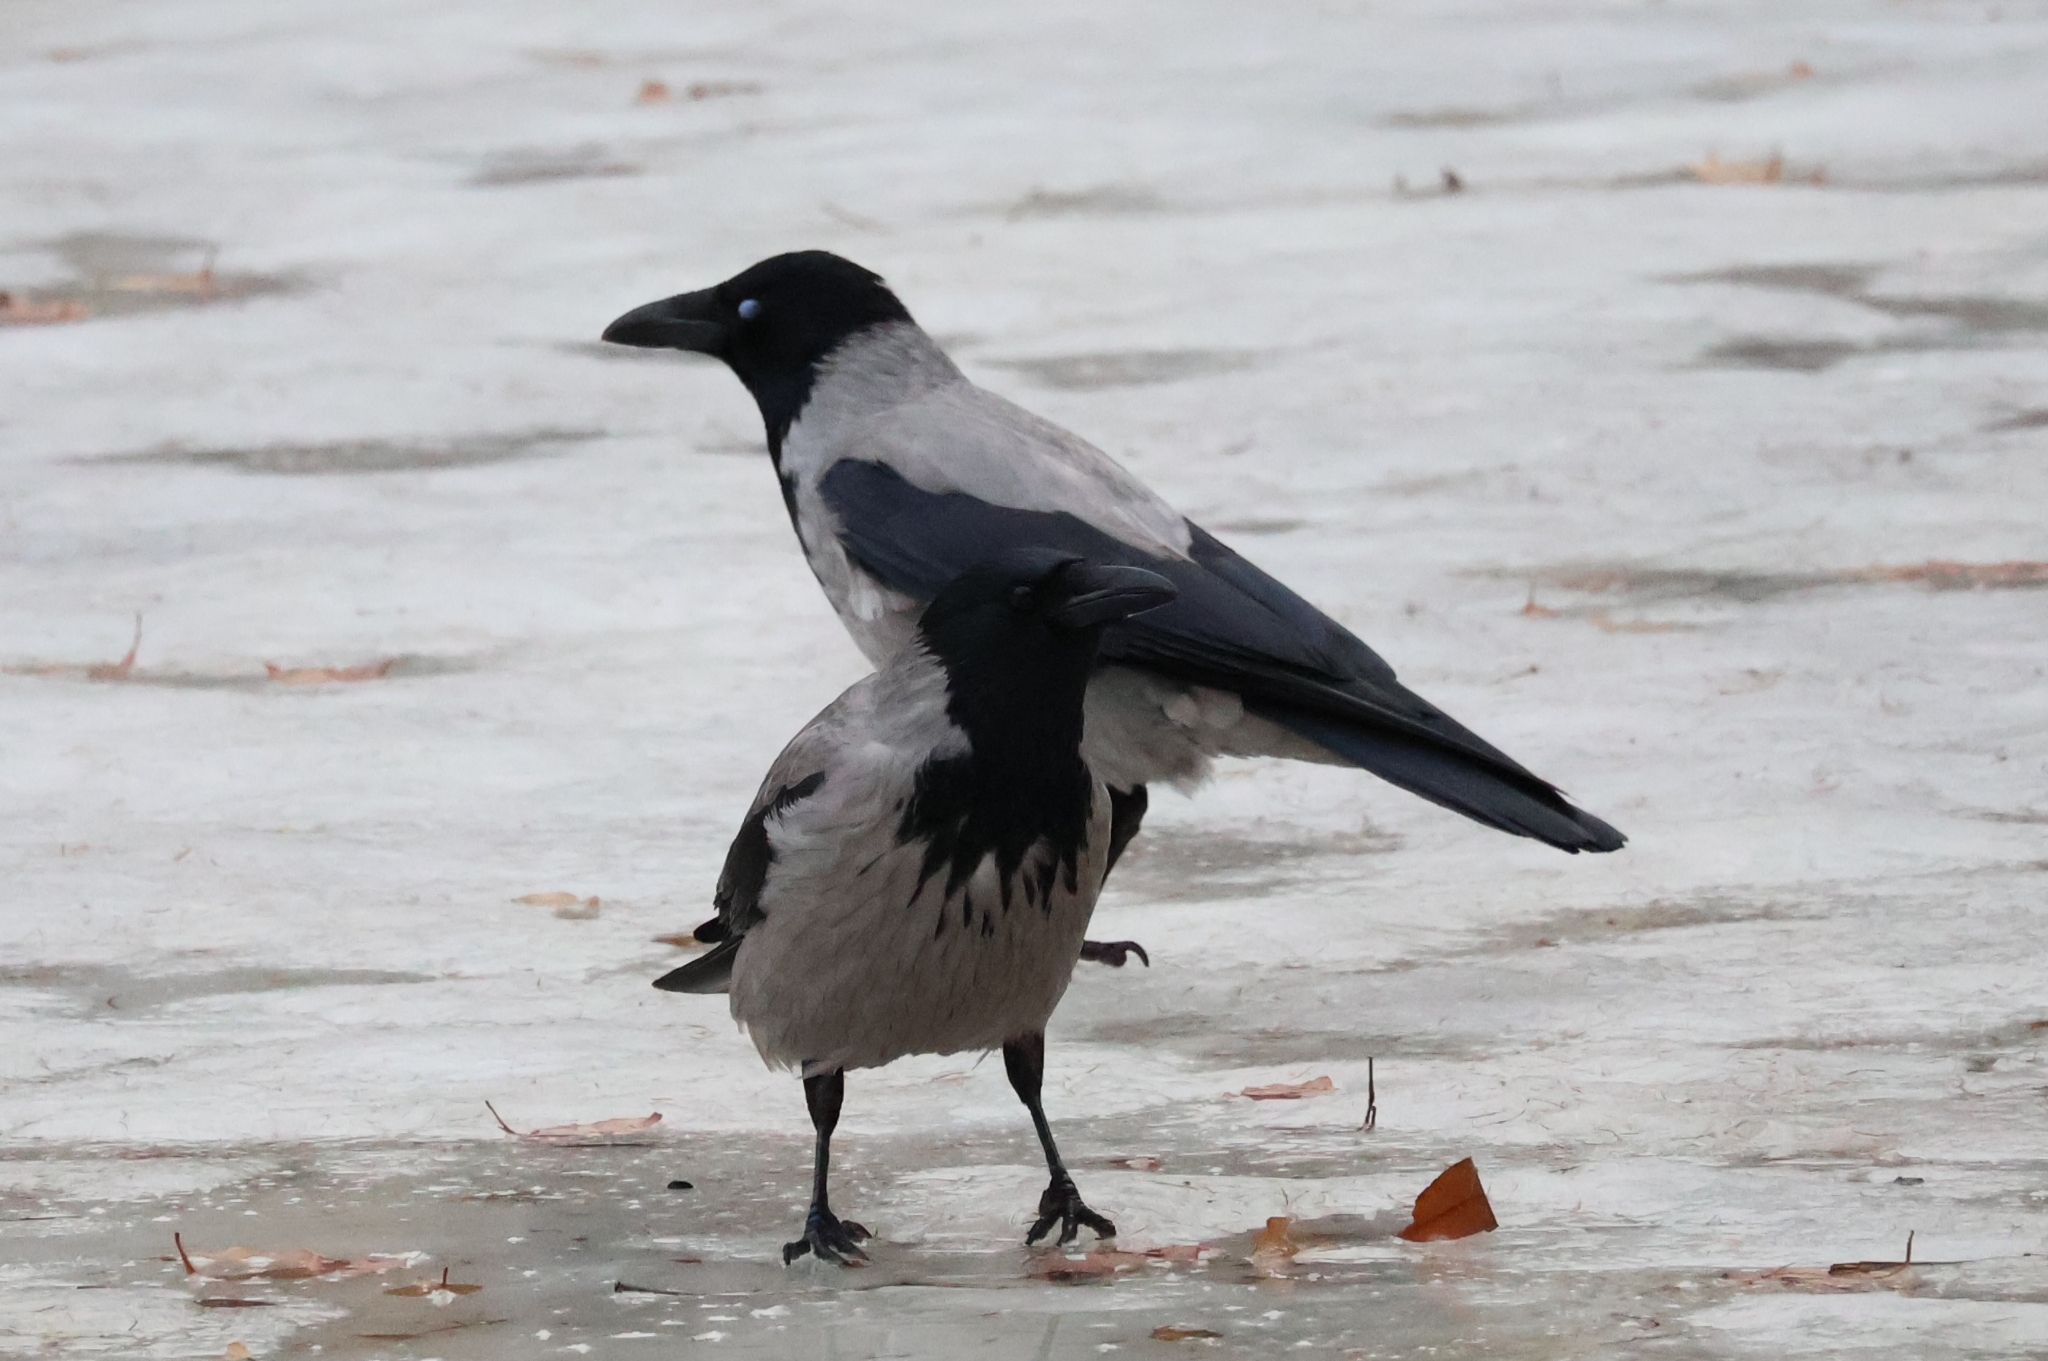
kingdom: Animalia
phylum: Chordata
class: Aves
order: Passeriformes
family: Corvidae
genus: Corvus
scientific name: Corvus cornix
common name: Hooded crow
